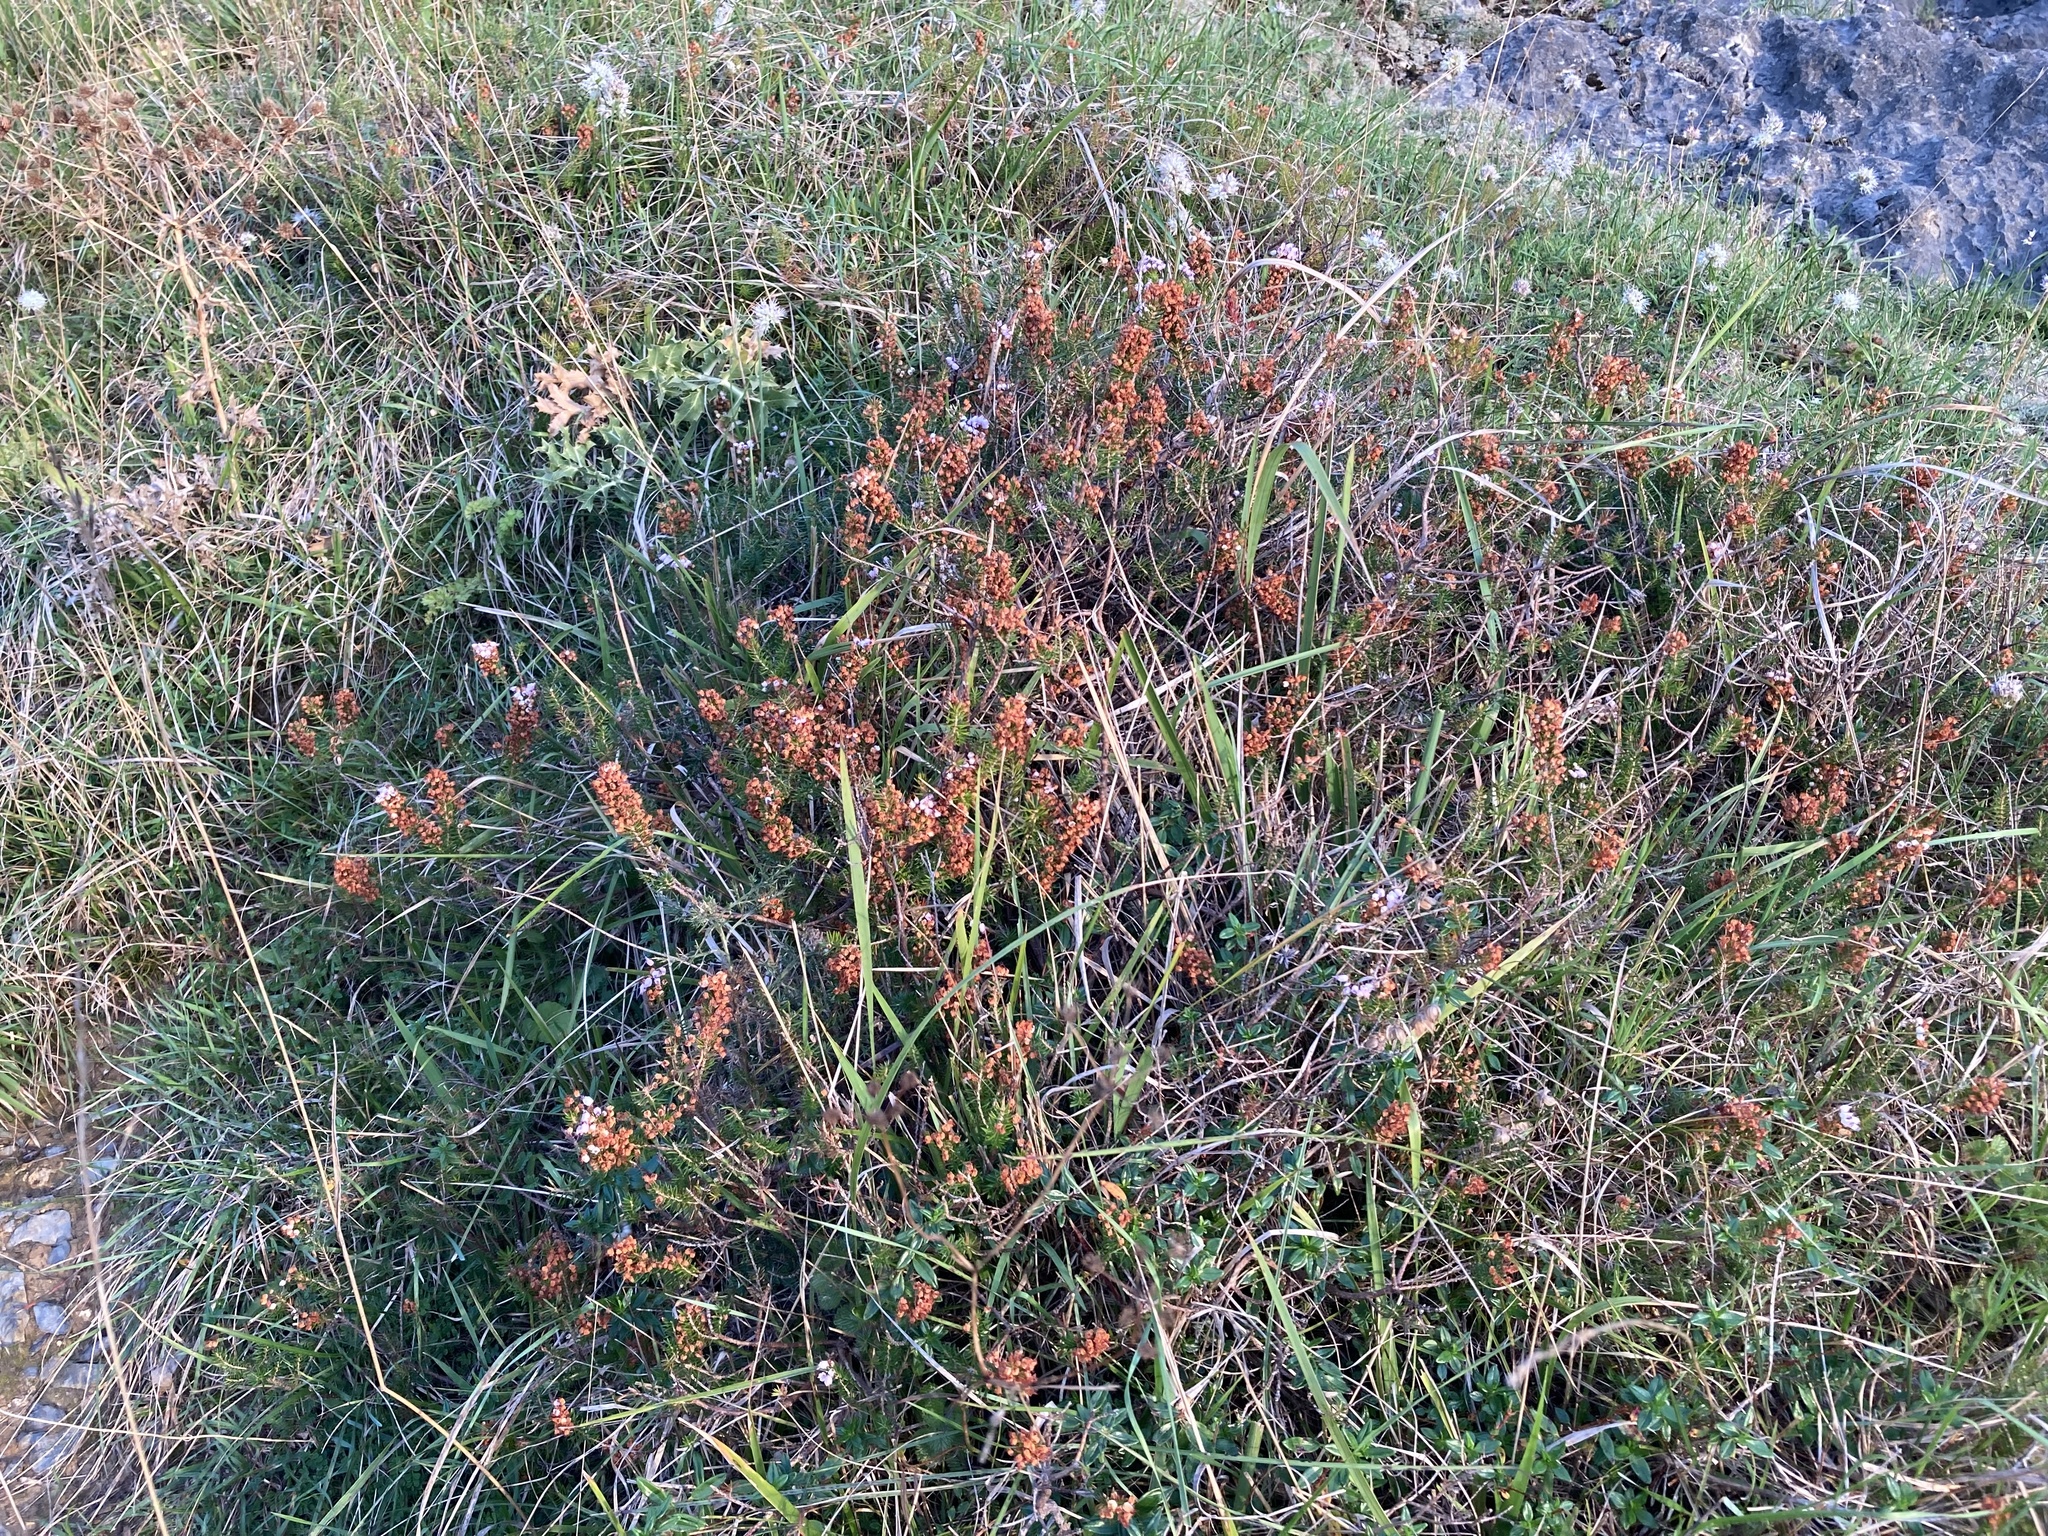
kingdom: Plantae
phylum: Tracheophyta
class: Magnoliopsida
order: Ericales
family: Ericaceae
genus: Erica
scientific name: Erica vagans
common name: Cornish heath
